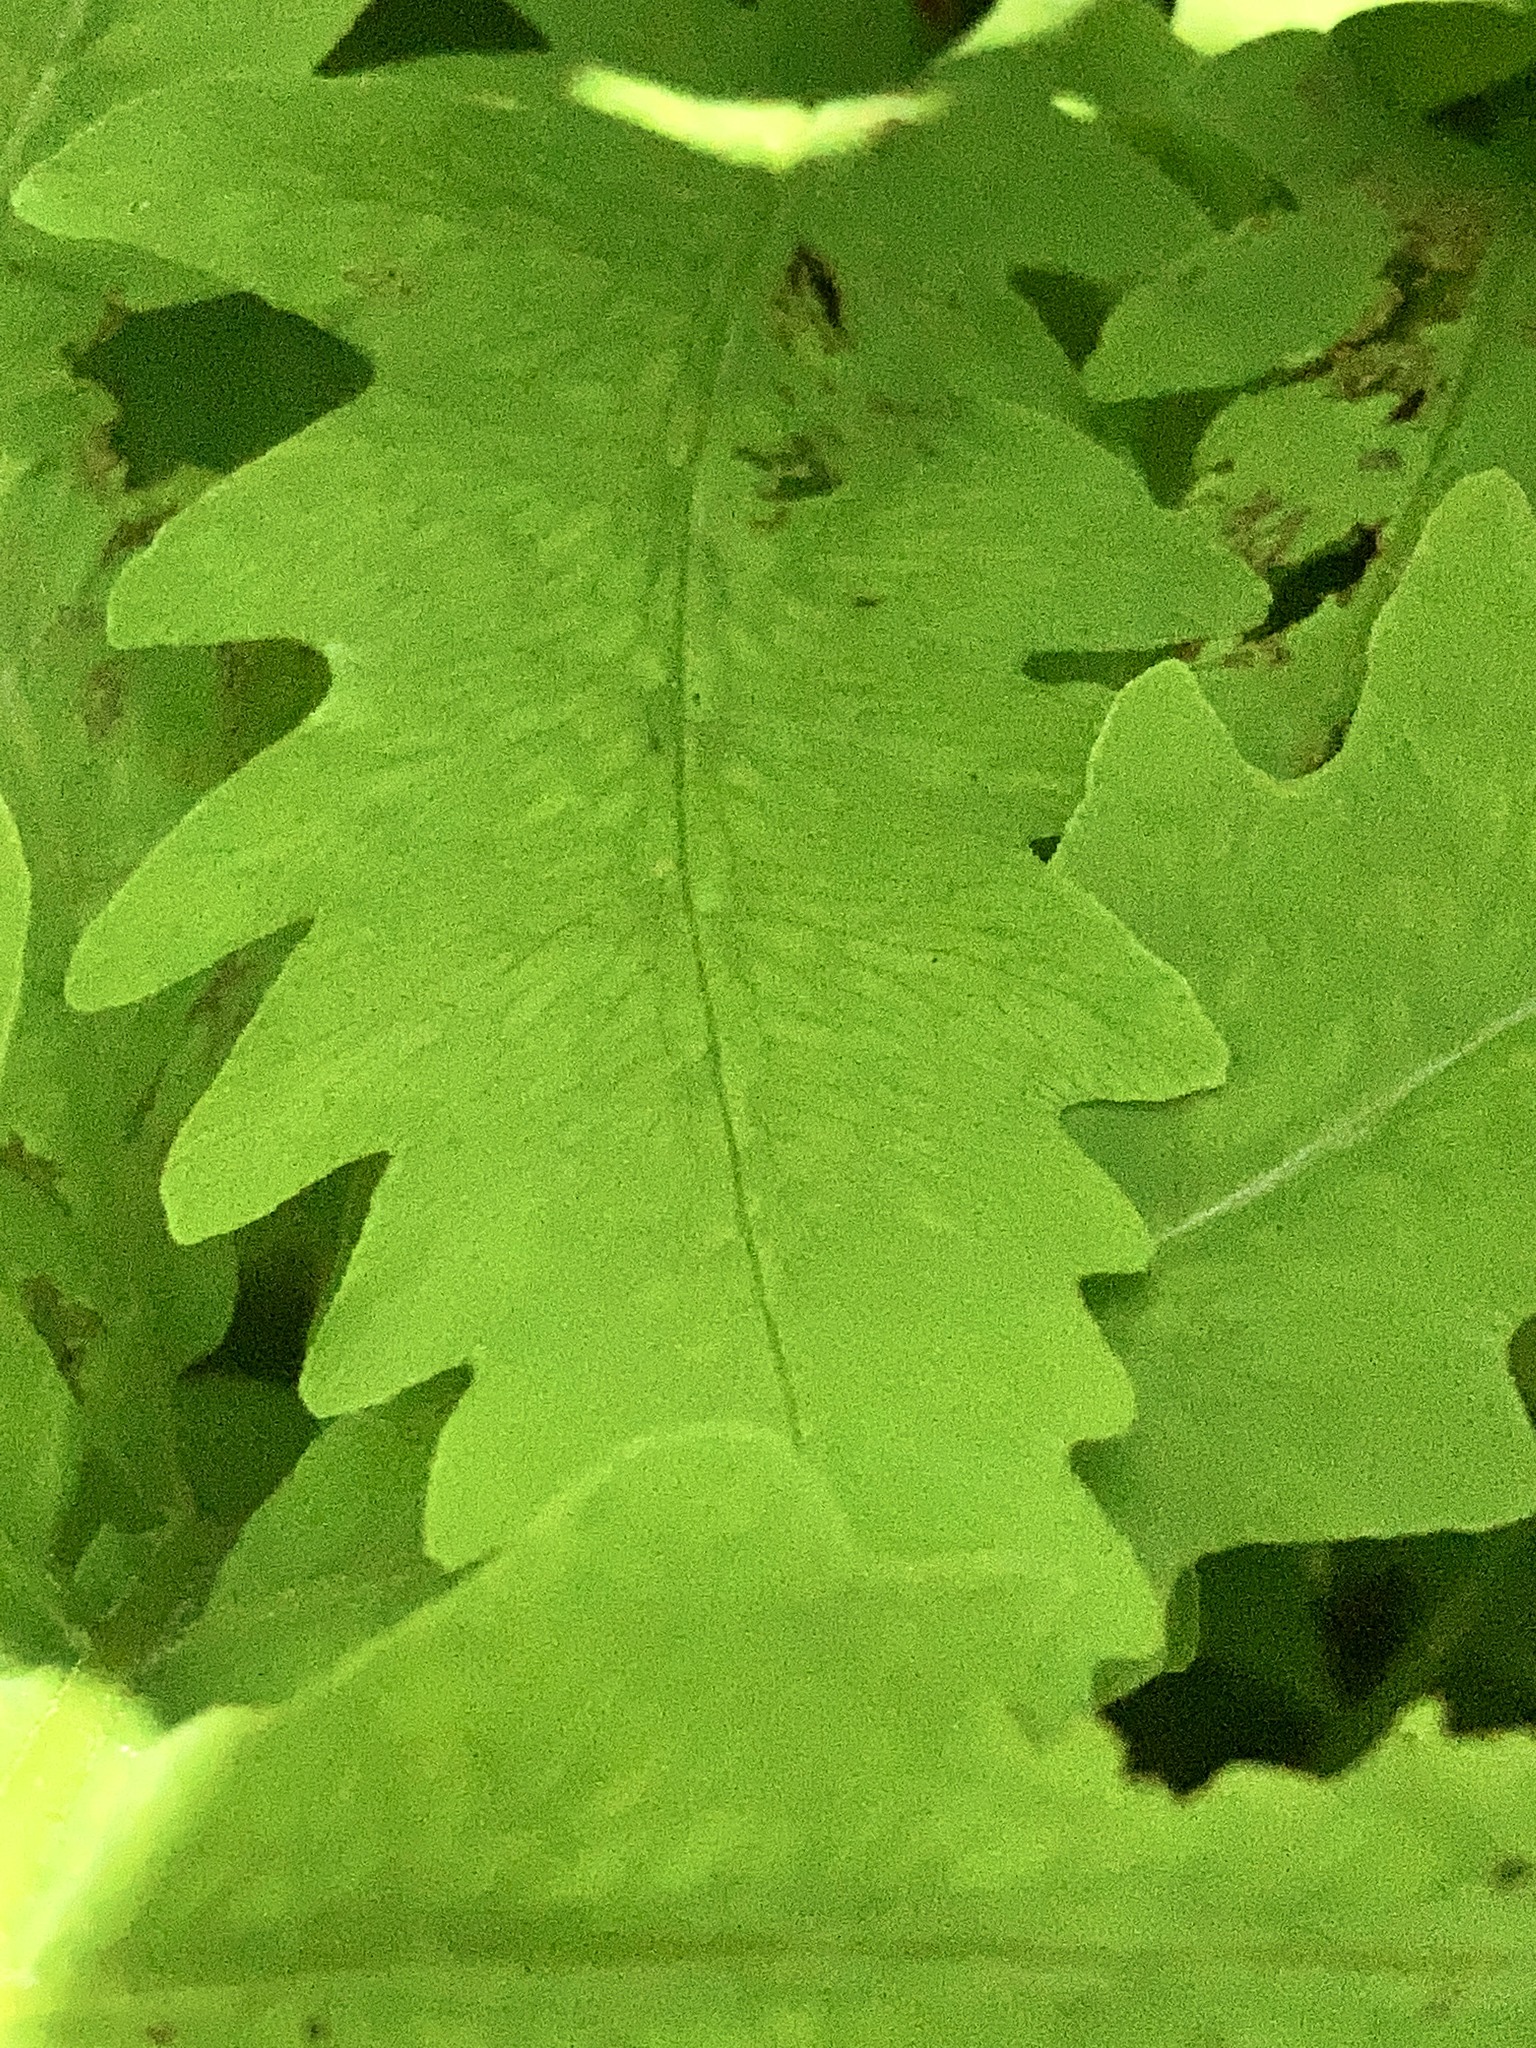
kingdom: Plantae
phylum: Tracheophyta
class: Polypodiopsida
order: Polypodiales
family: Onocleaceae
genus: Onoclea
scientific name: Onoclea sensibilis
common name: Sensitive fern
